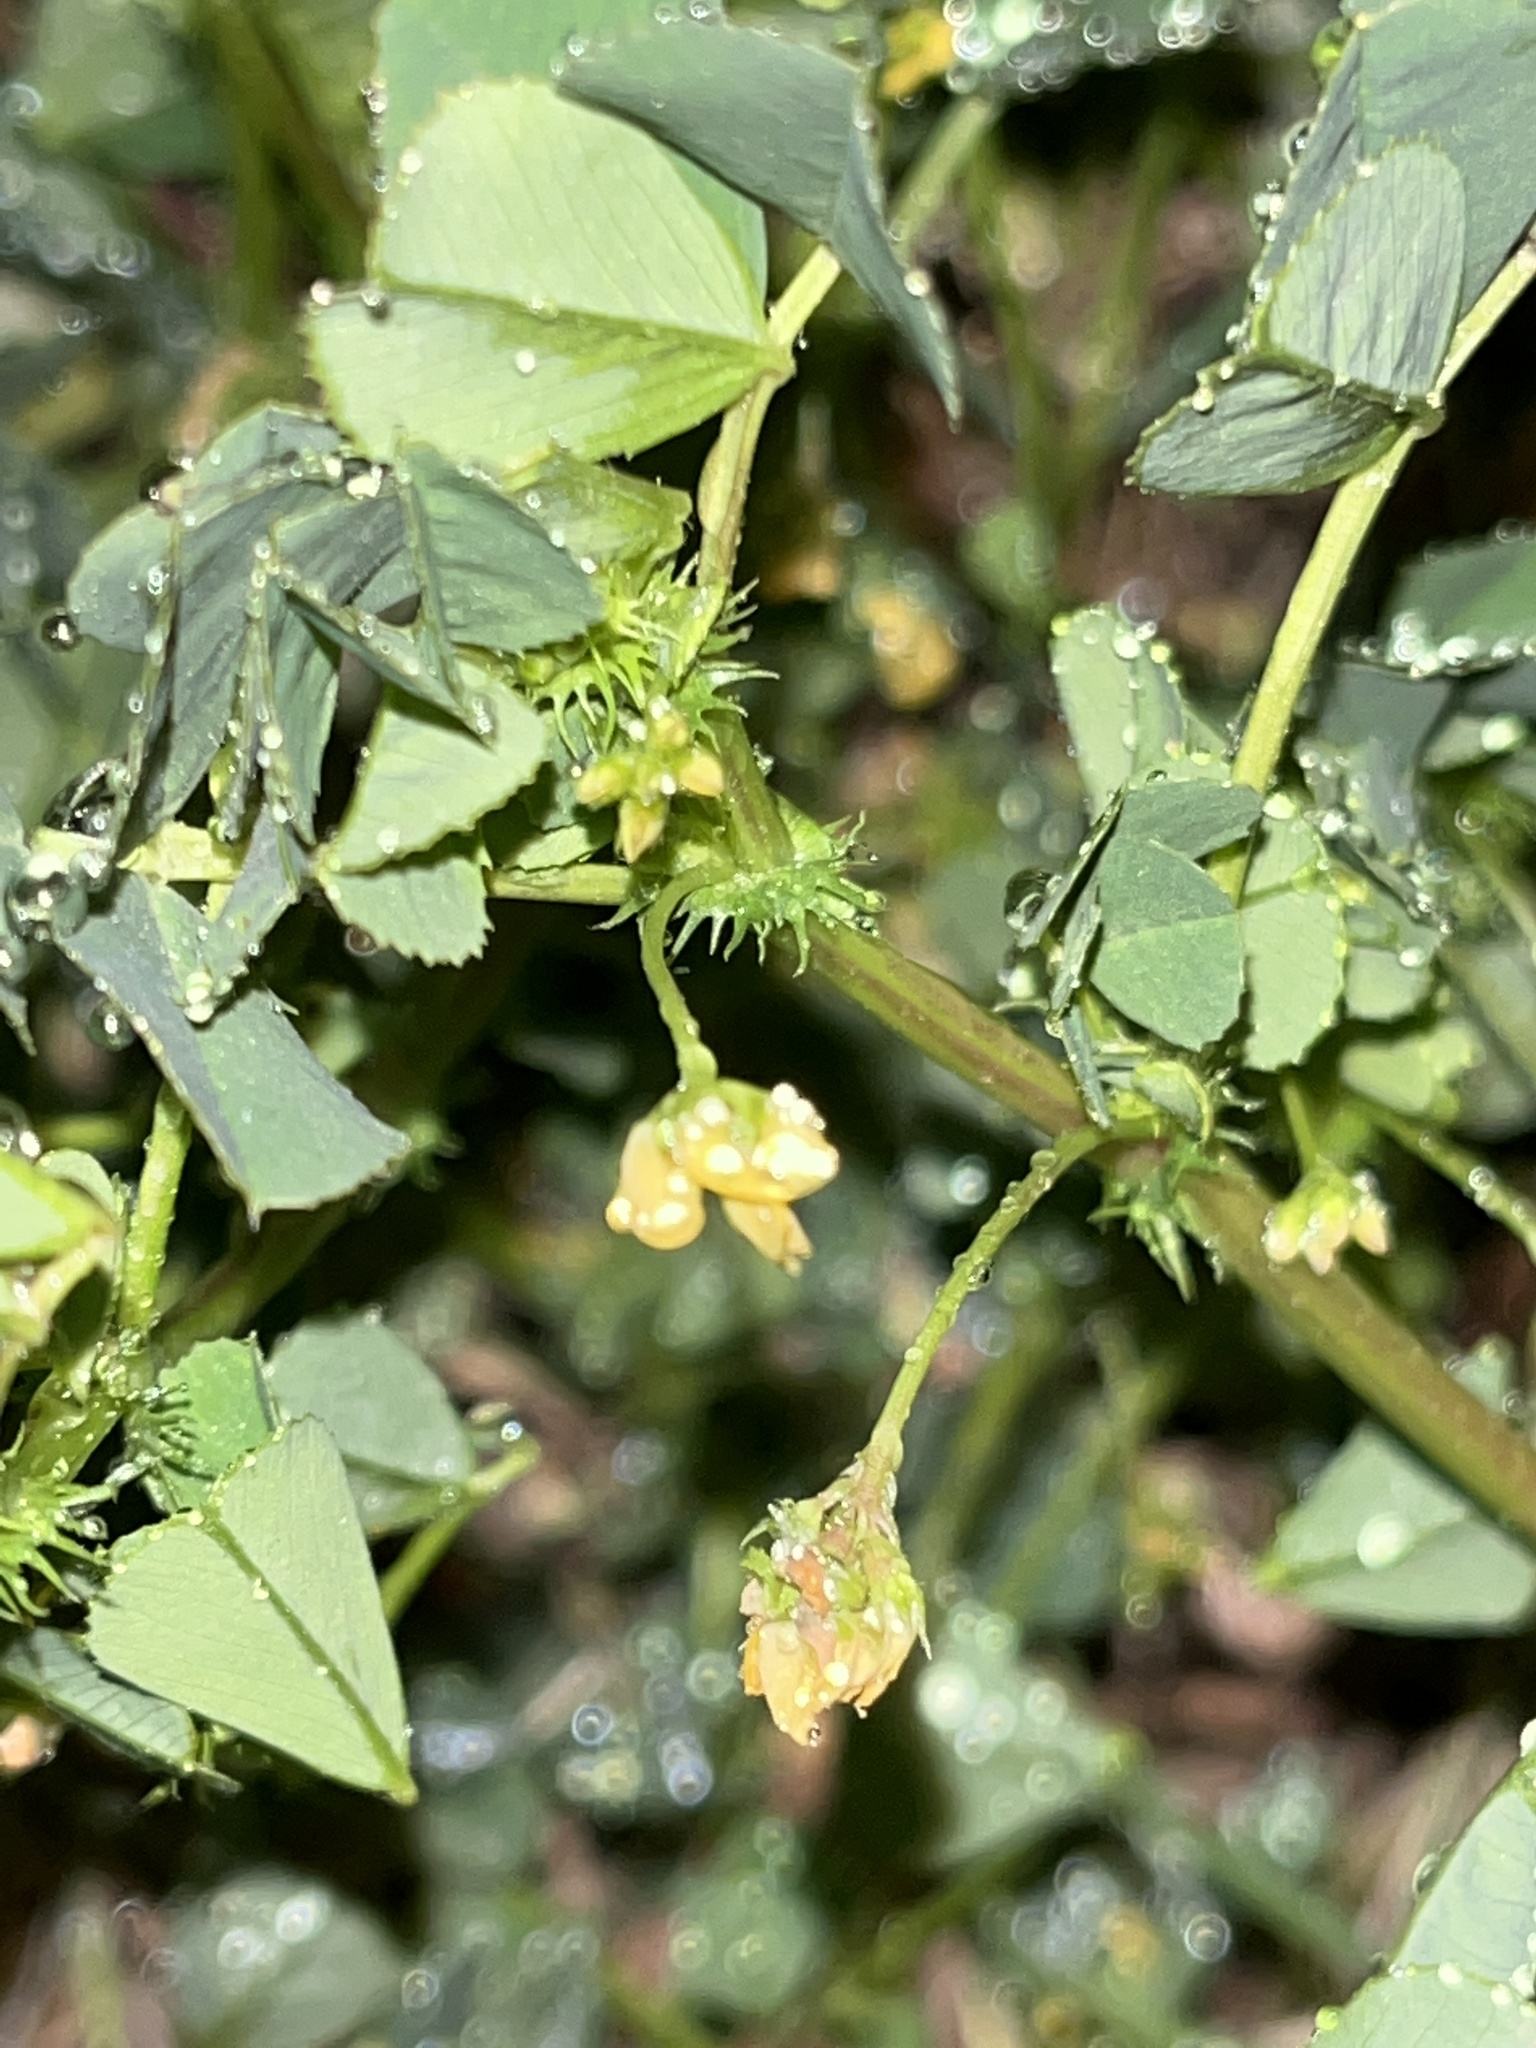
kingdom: Plantae
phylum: Tracheophyta
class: Magnoliopsida
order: Fabales
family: Fabaceae
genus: Medicago
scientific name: Medicago polymorpha
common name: Burclover
